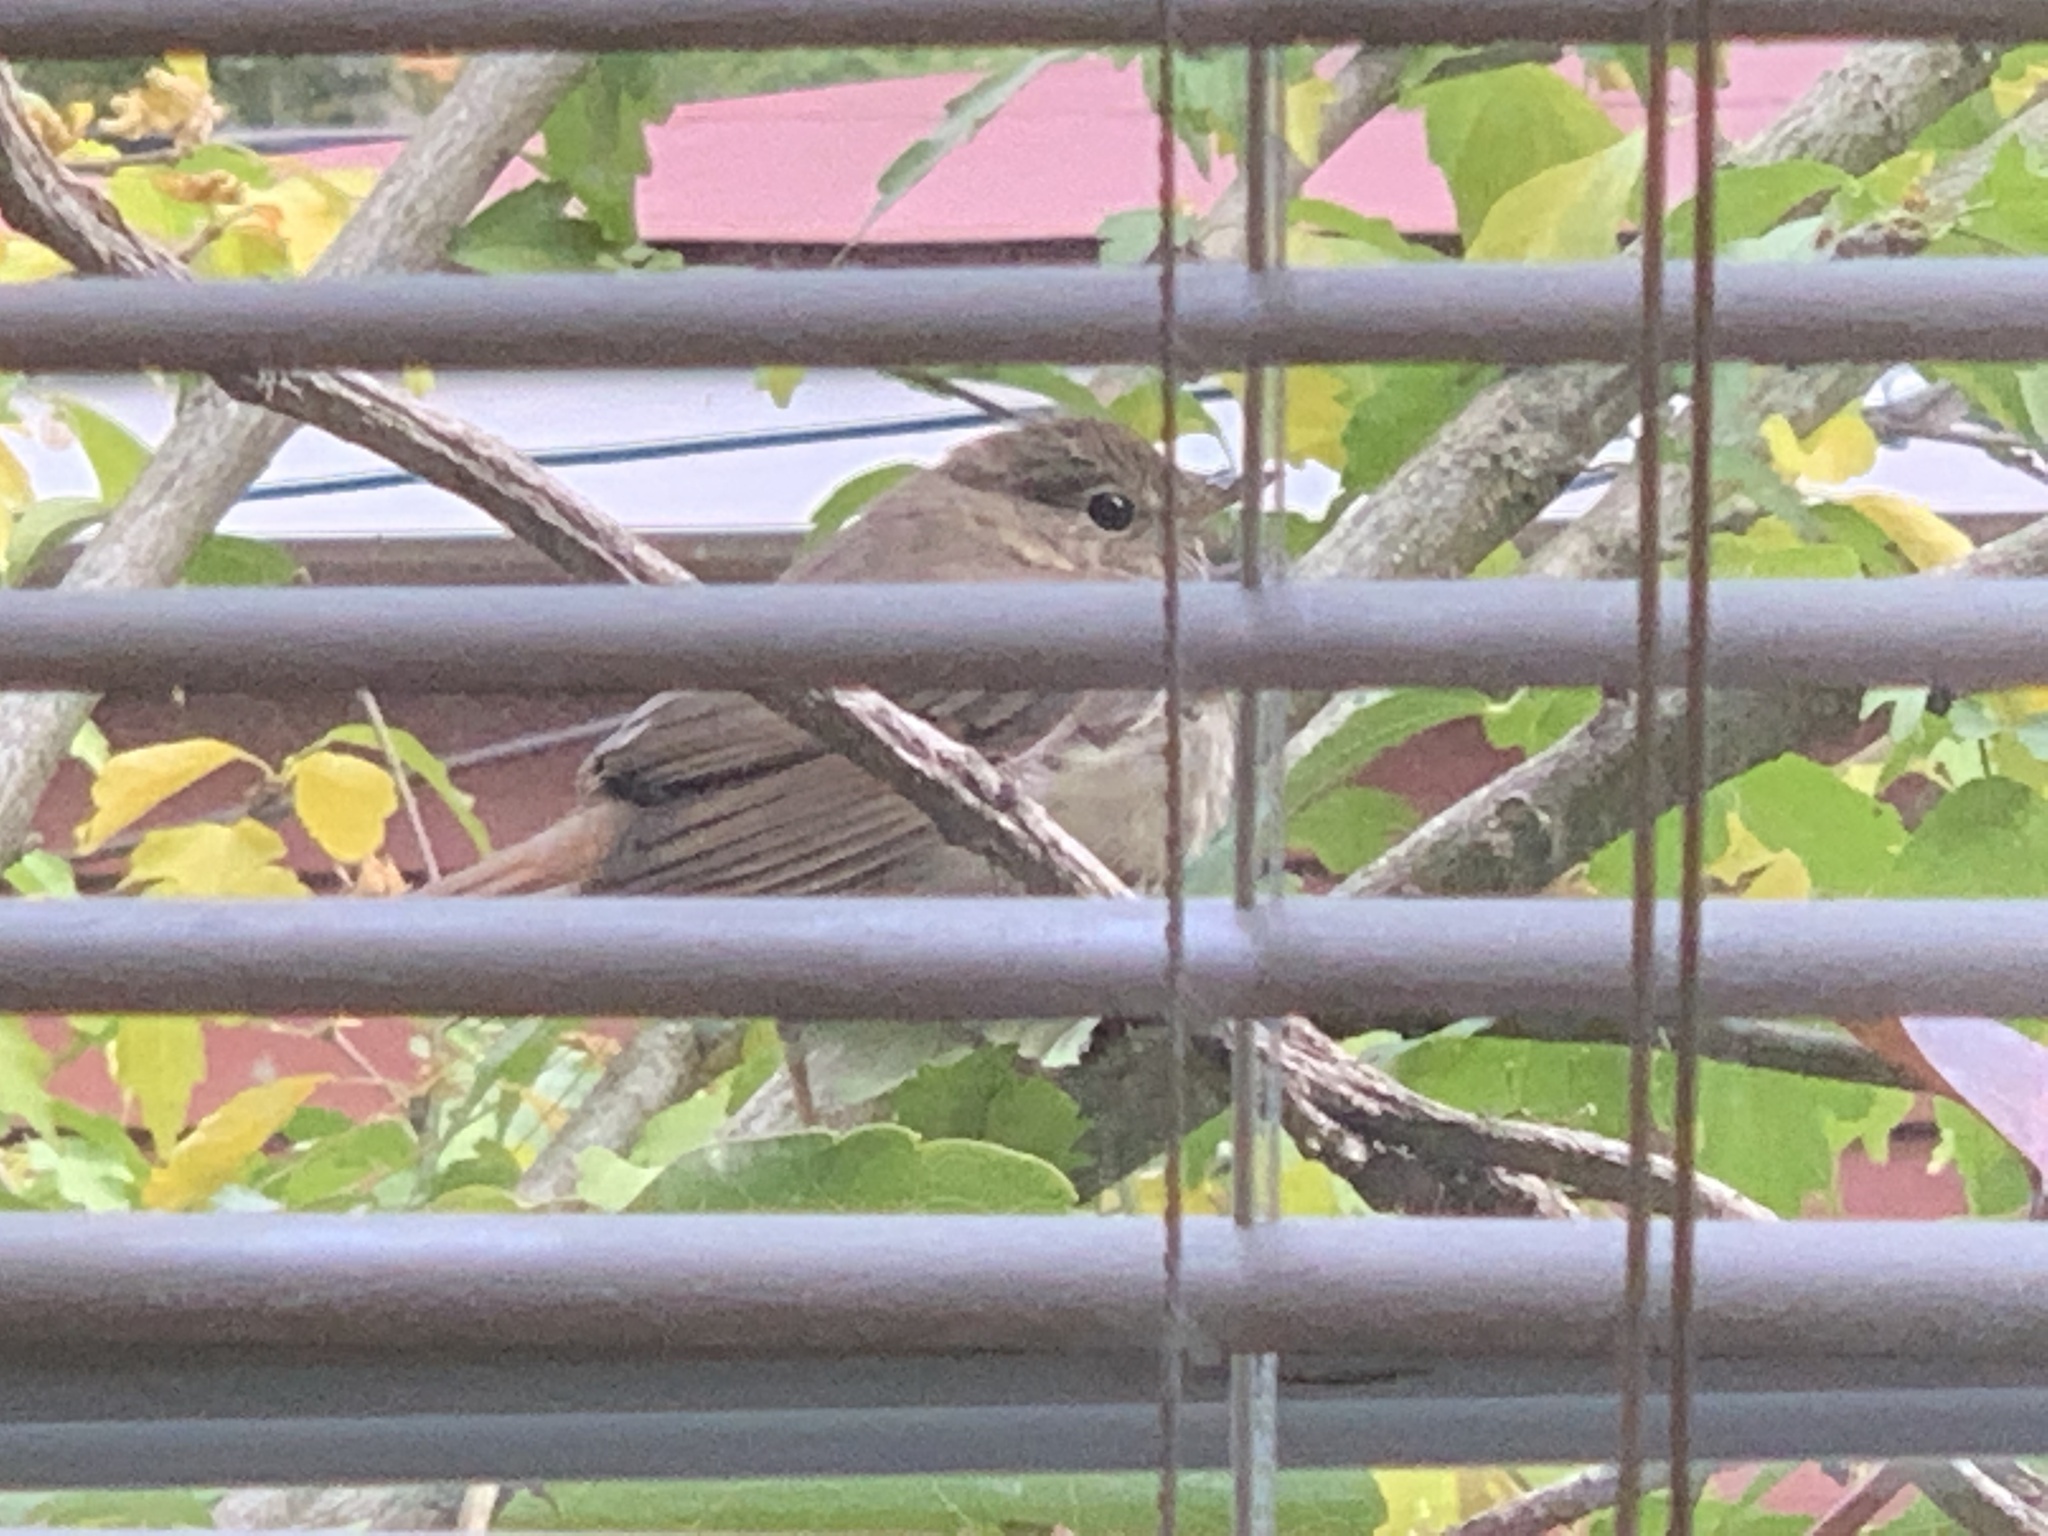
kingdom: Animalia
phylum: Chordata
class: Aves
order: Passeriformes
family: Turdidae
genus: Catharus
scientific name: Catharus guttatus
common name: Hermit thrush
